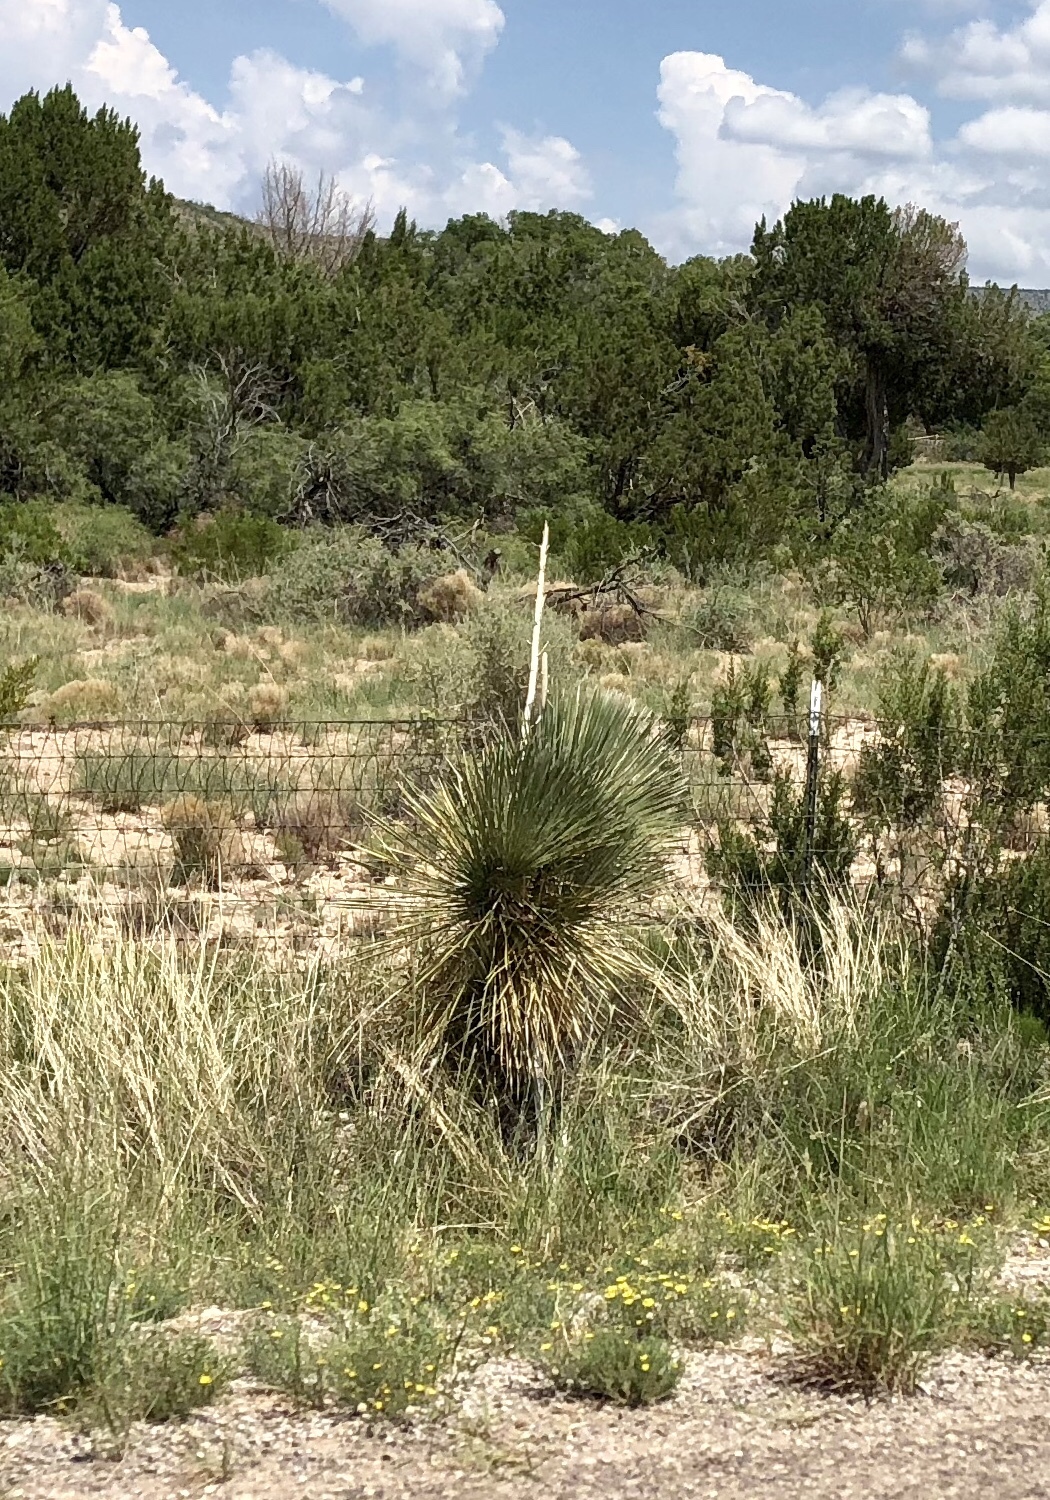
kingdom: Plantae
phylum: Tracheophyta
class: Liliopsida
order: Asparagales
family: Asparagaceae
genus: Yucca
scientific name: Yucca elata
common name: Palmella
